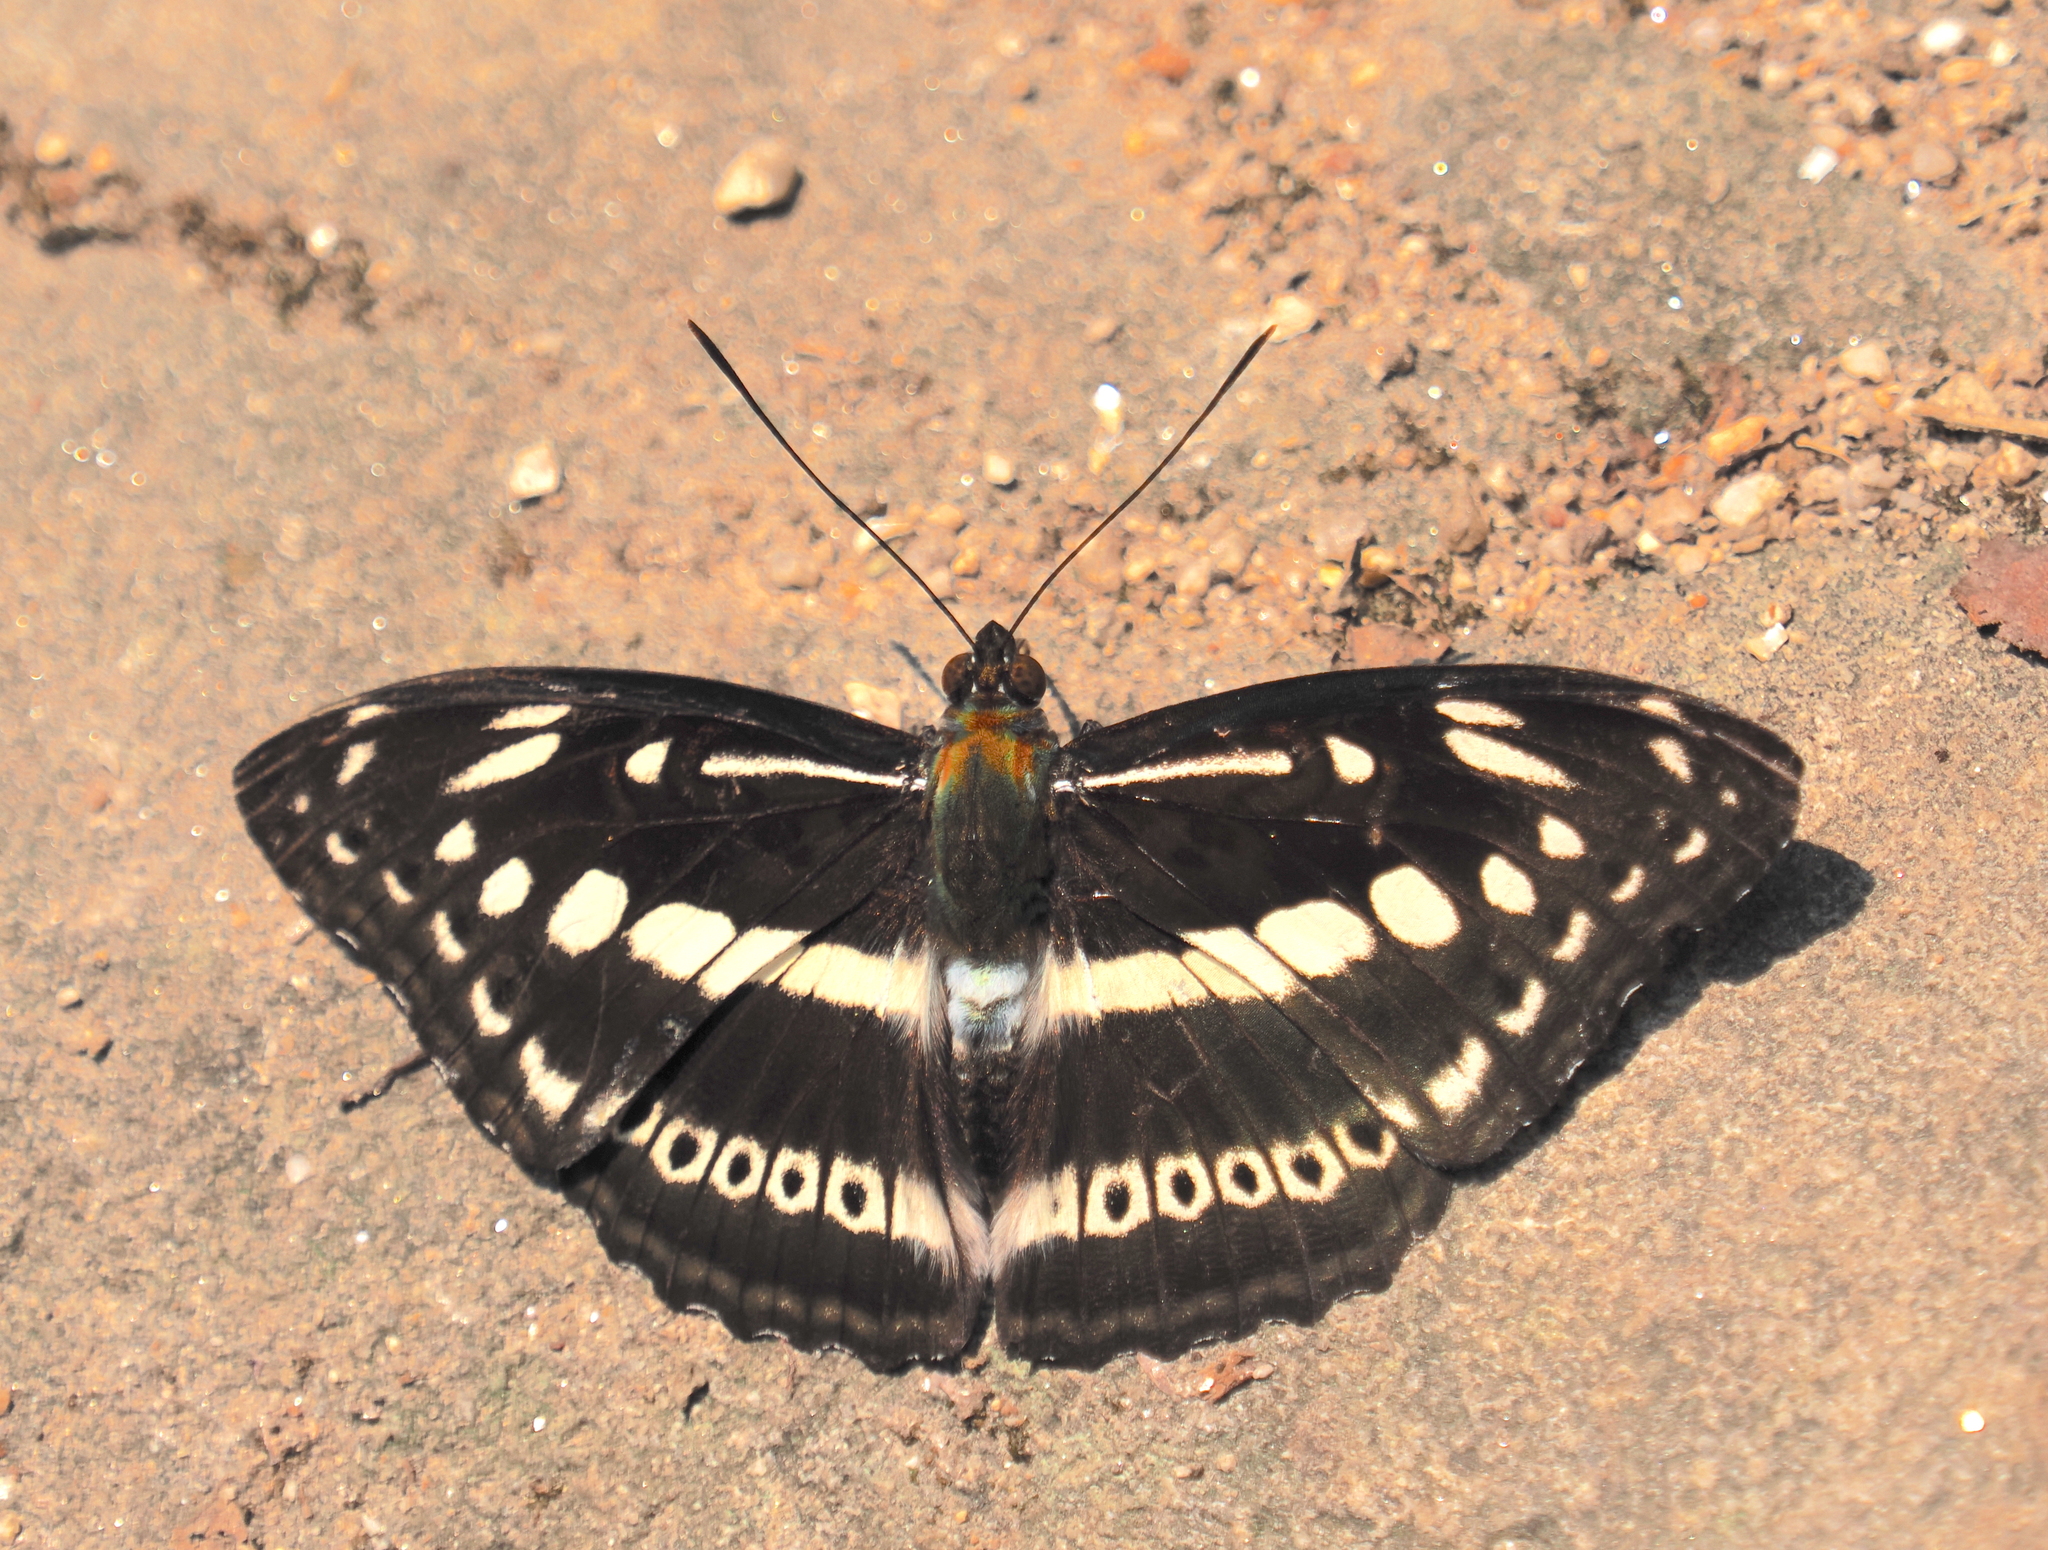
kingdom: Animalia
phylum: Arthropoda
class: Insecta
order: Lepidoptera
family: Nymphalidae
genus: Parathyma
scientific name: Parathyma asura
